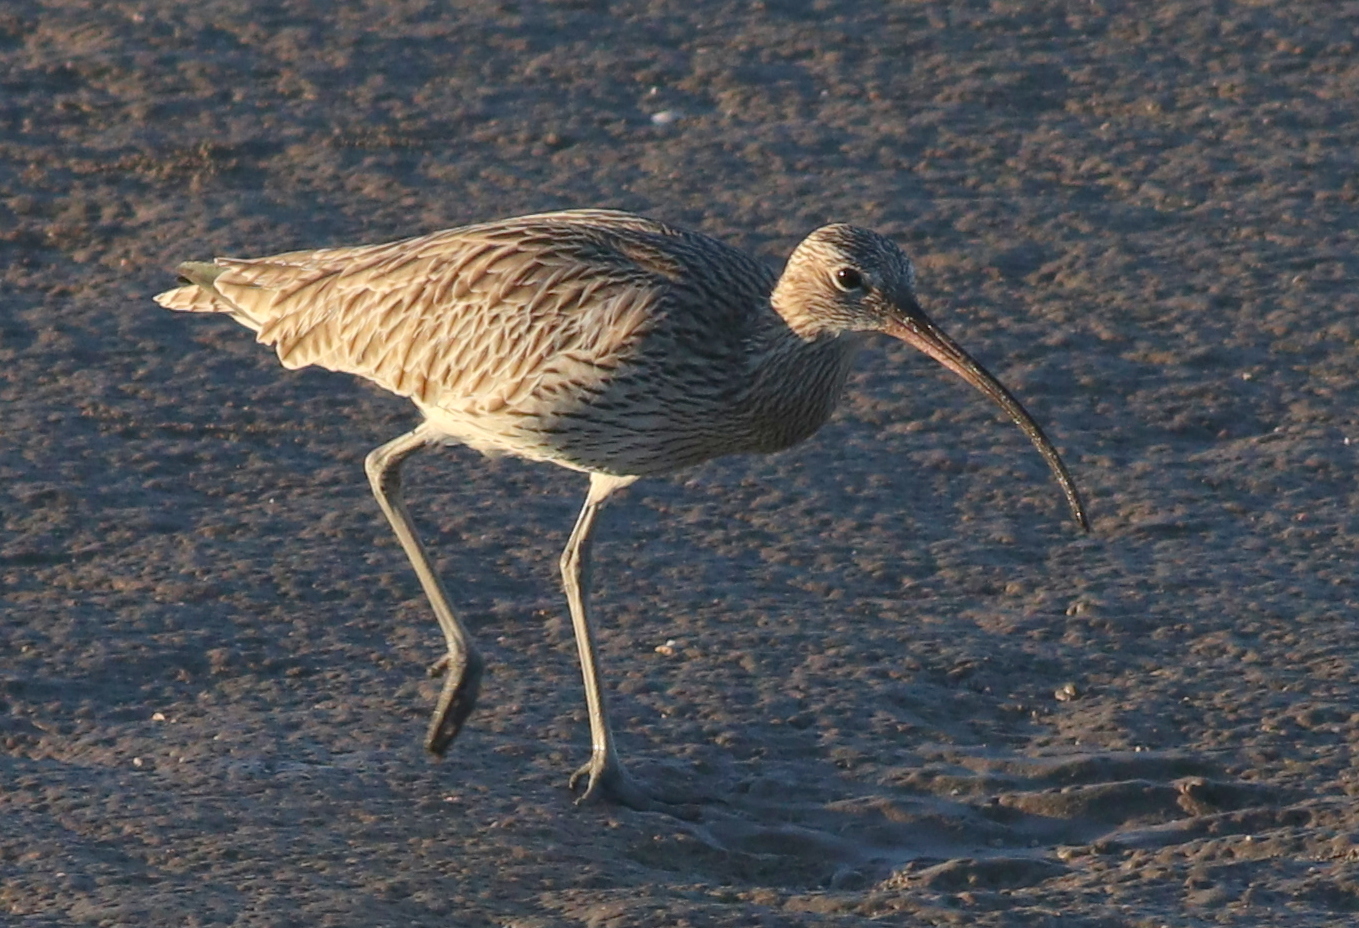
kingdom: Animalia
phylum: Chordata
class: Aves
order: Charadriiformes
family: Scolopacidae
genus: Numenius
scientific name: Numenius arquata
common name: Eurasian curlew
